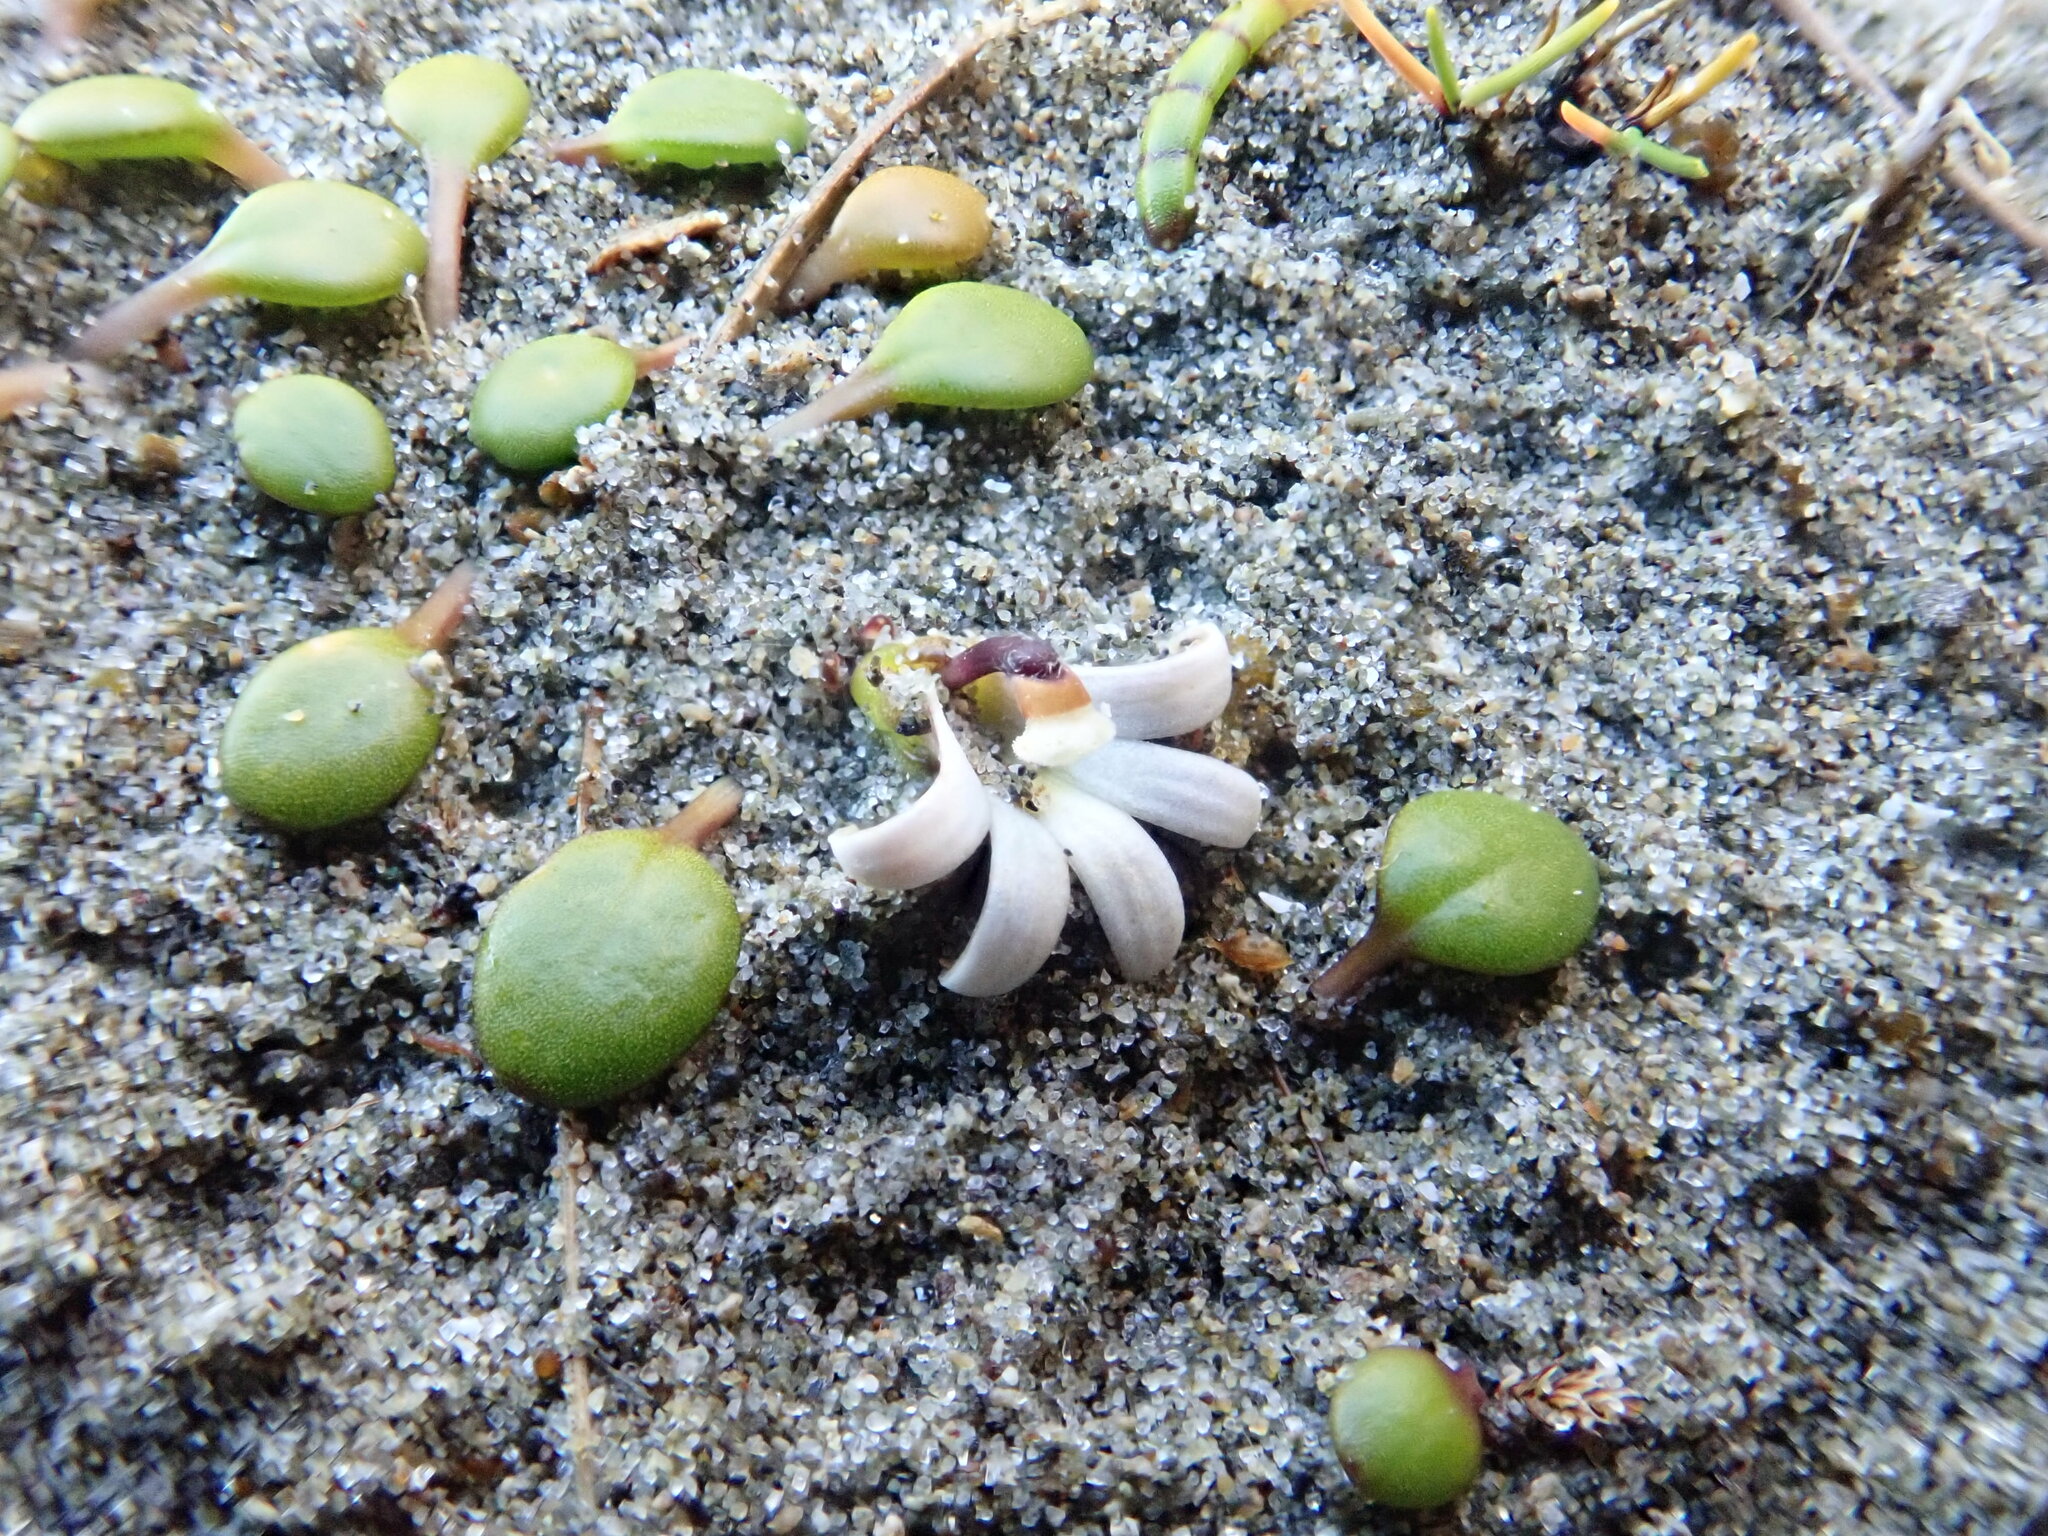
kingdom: Plantae
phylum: Tracheophyta
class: Magnoliopsida
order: Asterales
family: Goodeniaceae
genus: Goodenia
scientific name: Goodenia heenanii
